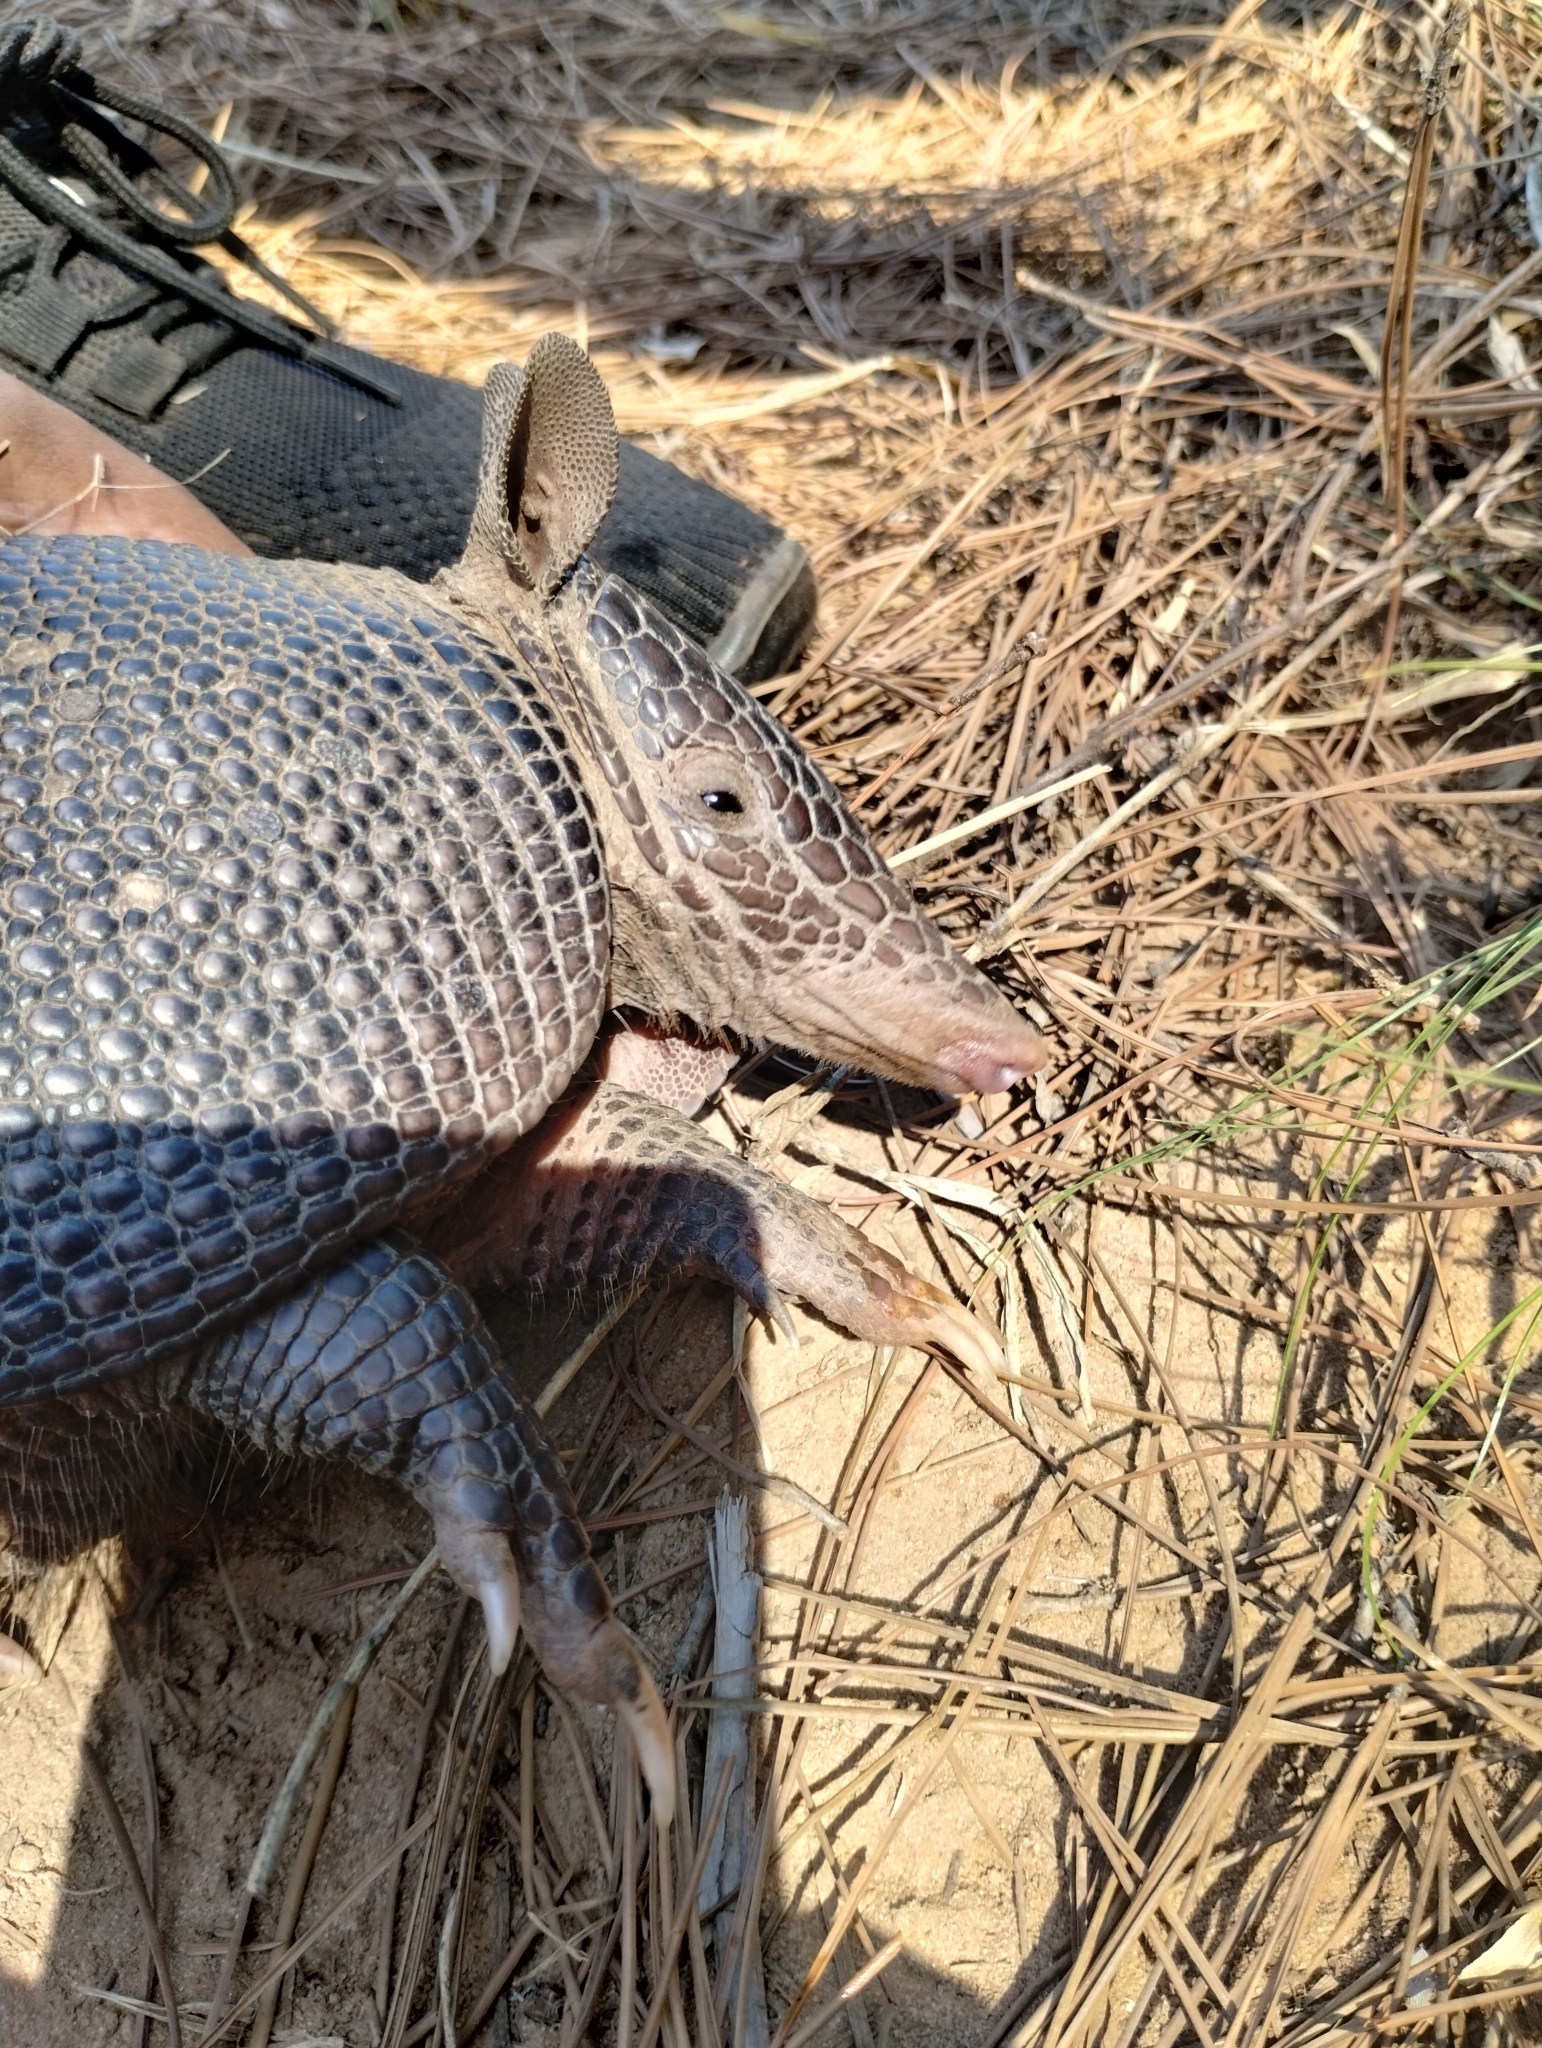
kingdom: Animalia
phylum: Chordata
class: Mammalia
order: Cingulata
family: Dasypodidae
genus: Dasypus
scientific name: Dasypus septemcinctus
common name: Seven-banded armadillo
